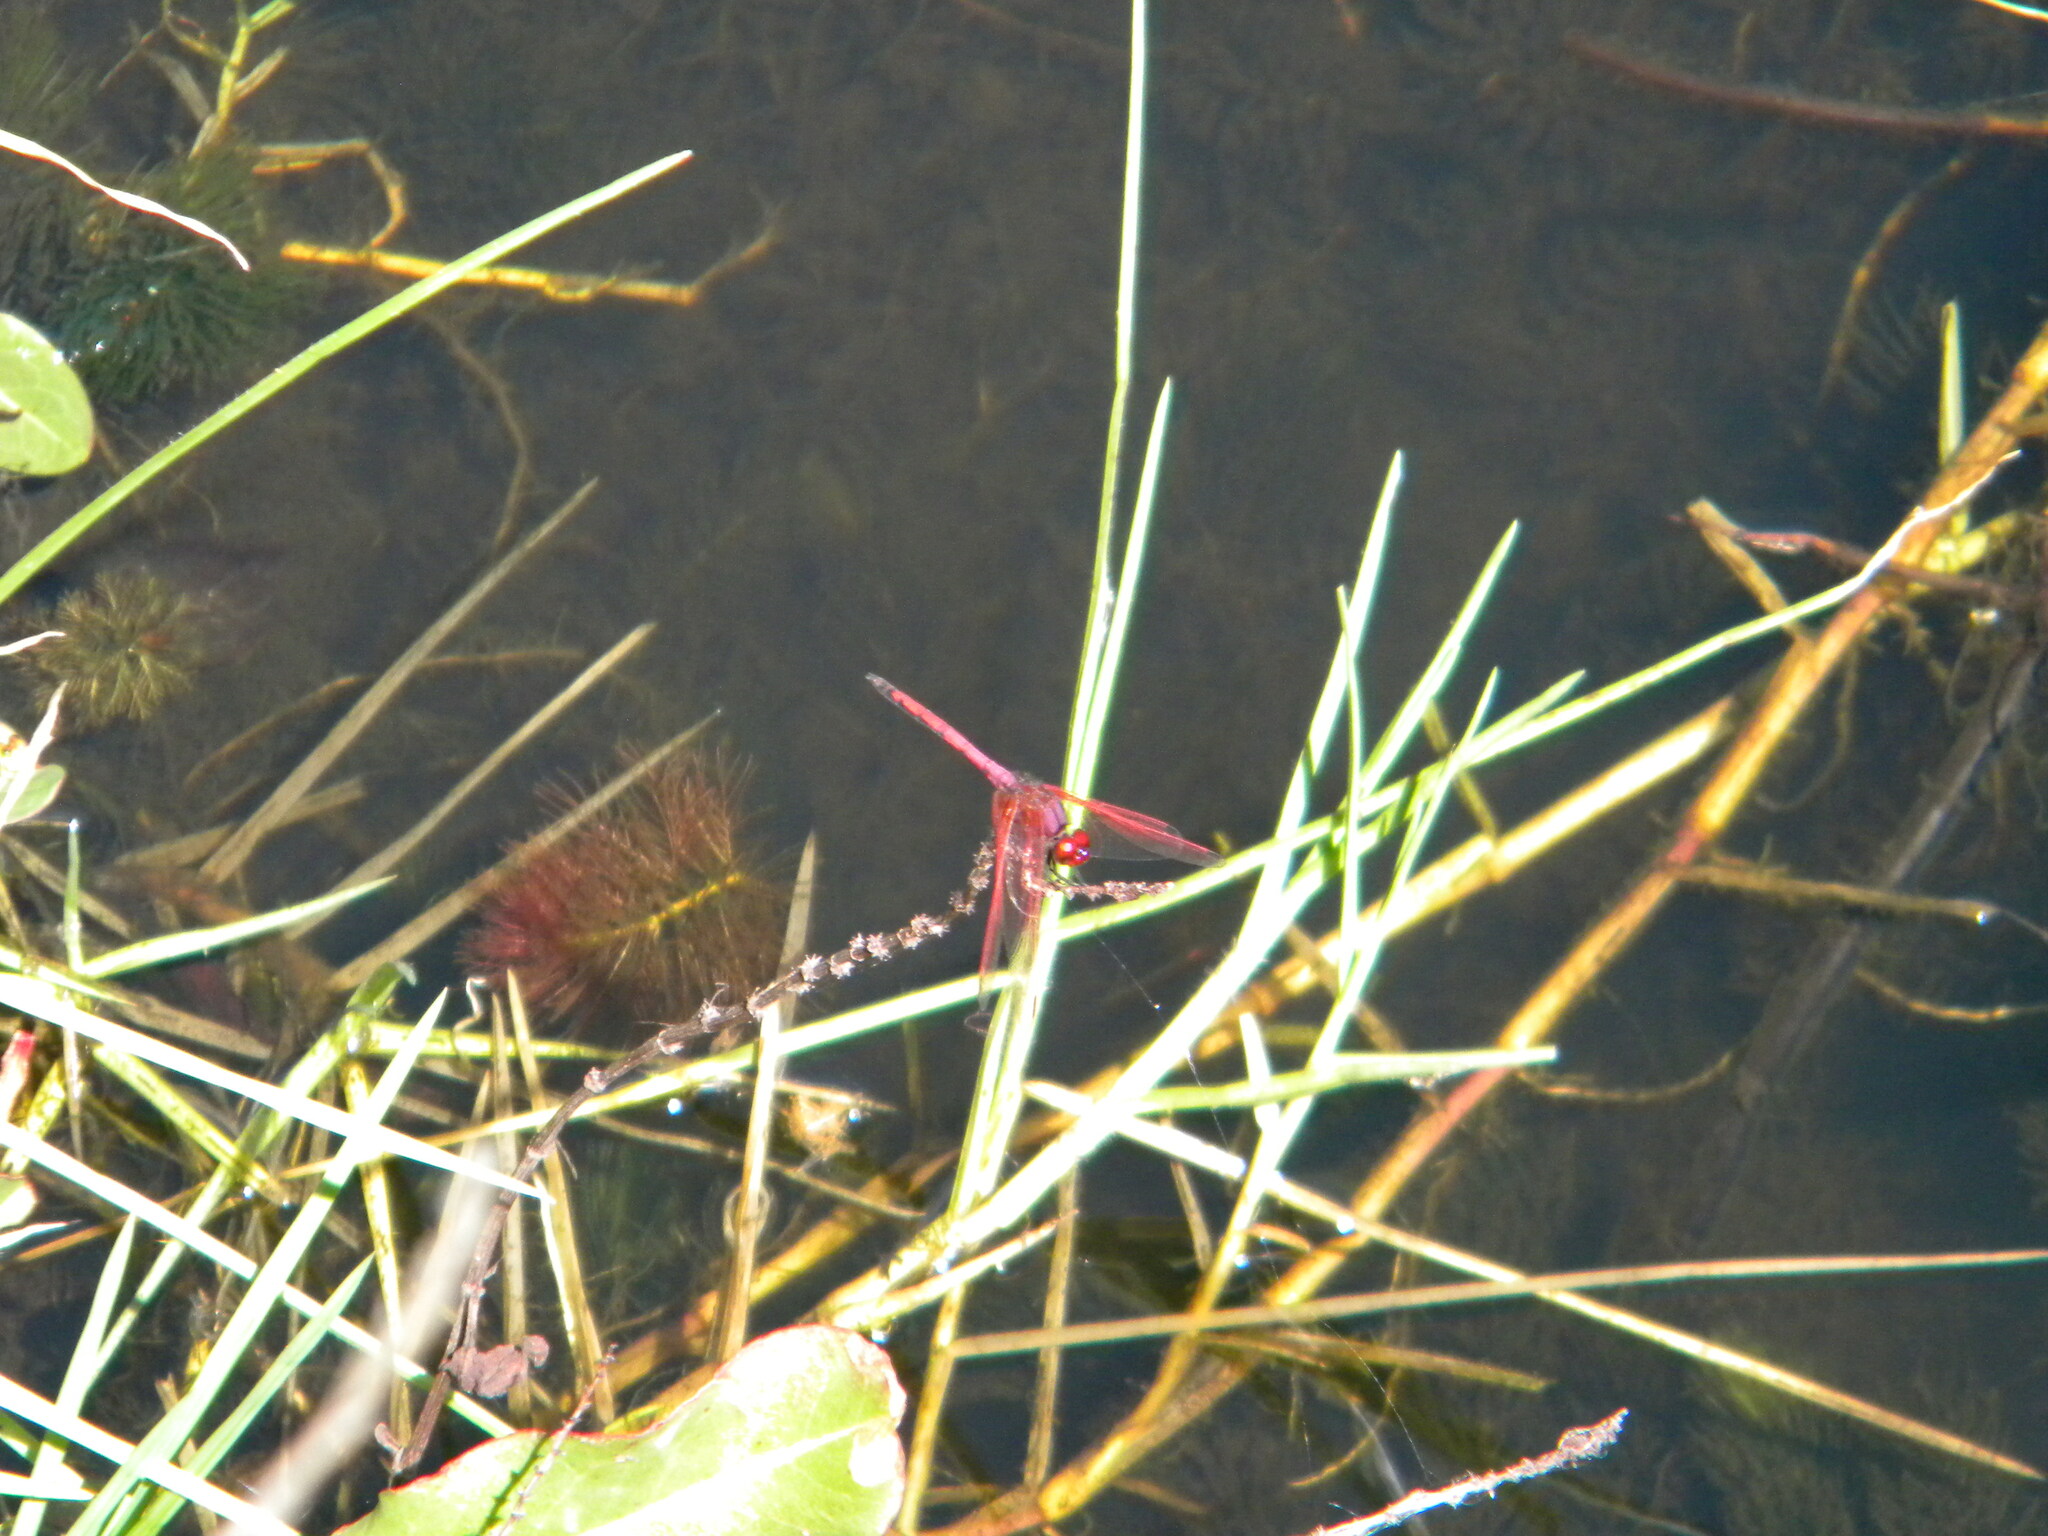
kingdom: Animalia
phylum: Arthropoda
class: Insecta
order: Odonata
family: Libellulidae
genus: Trithemis
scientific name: Trithemis arteriosa
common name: Red-veined dropwing
